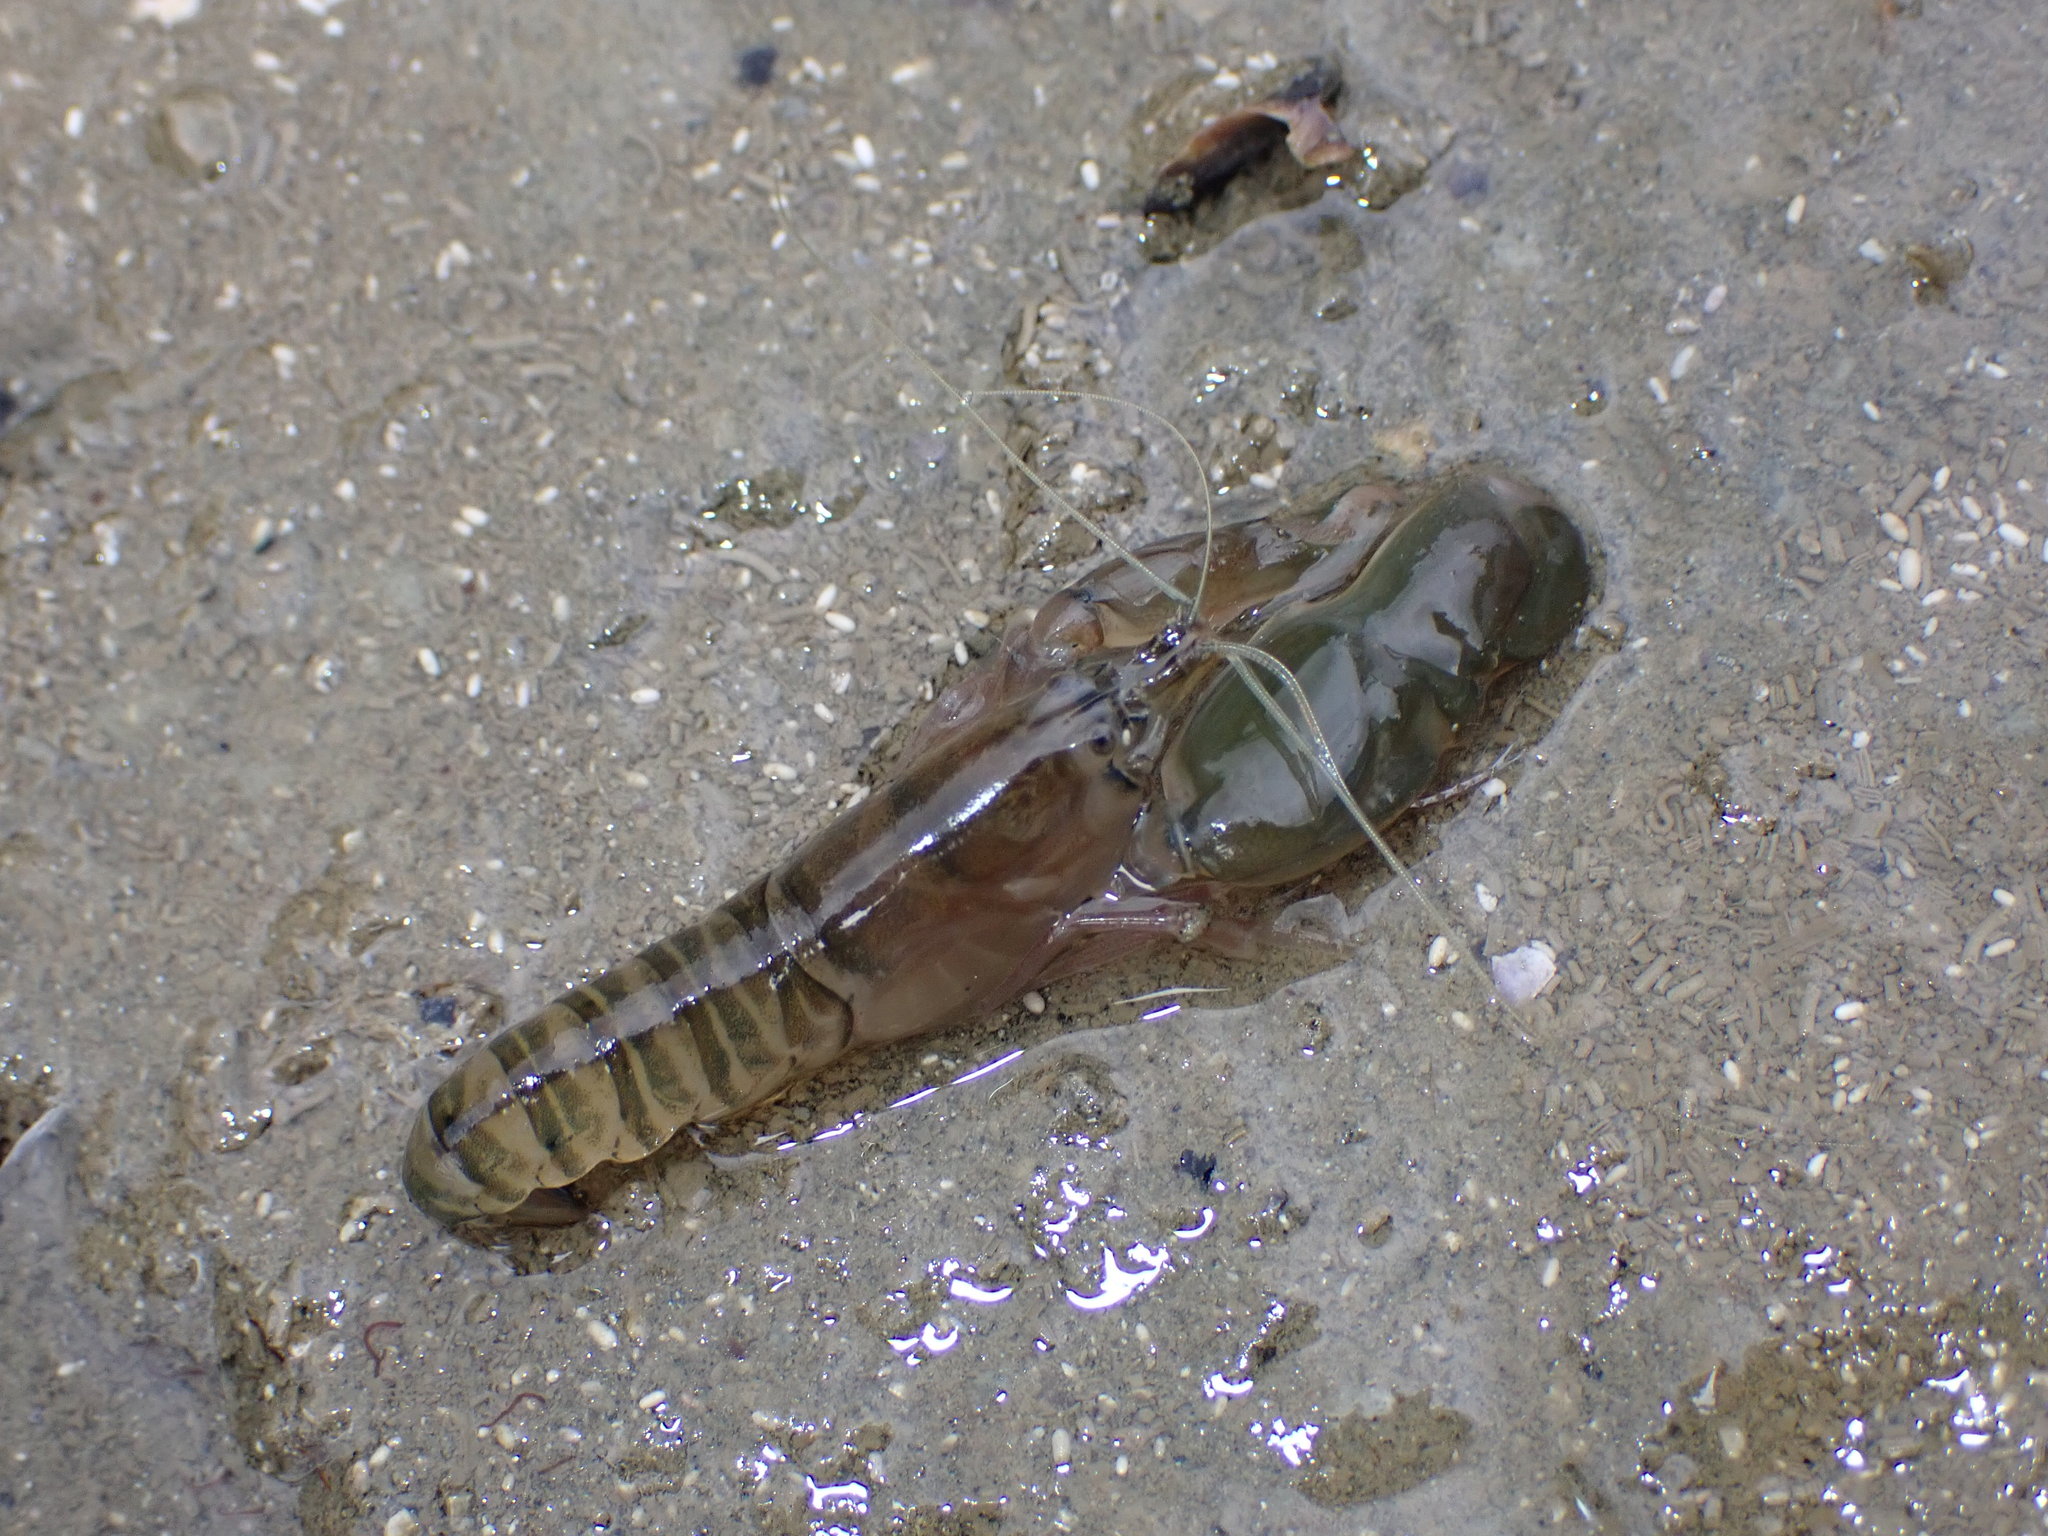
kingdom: Animalia
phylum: Arthropoda
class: Malacostraca
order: Decapoda
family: Alpheidae
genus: Alpheus
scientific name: Alpheus richardsoni
